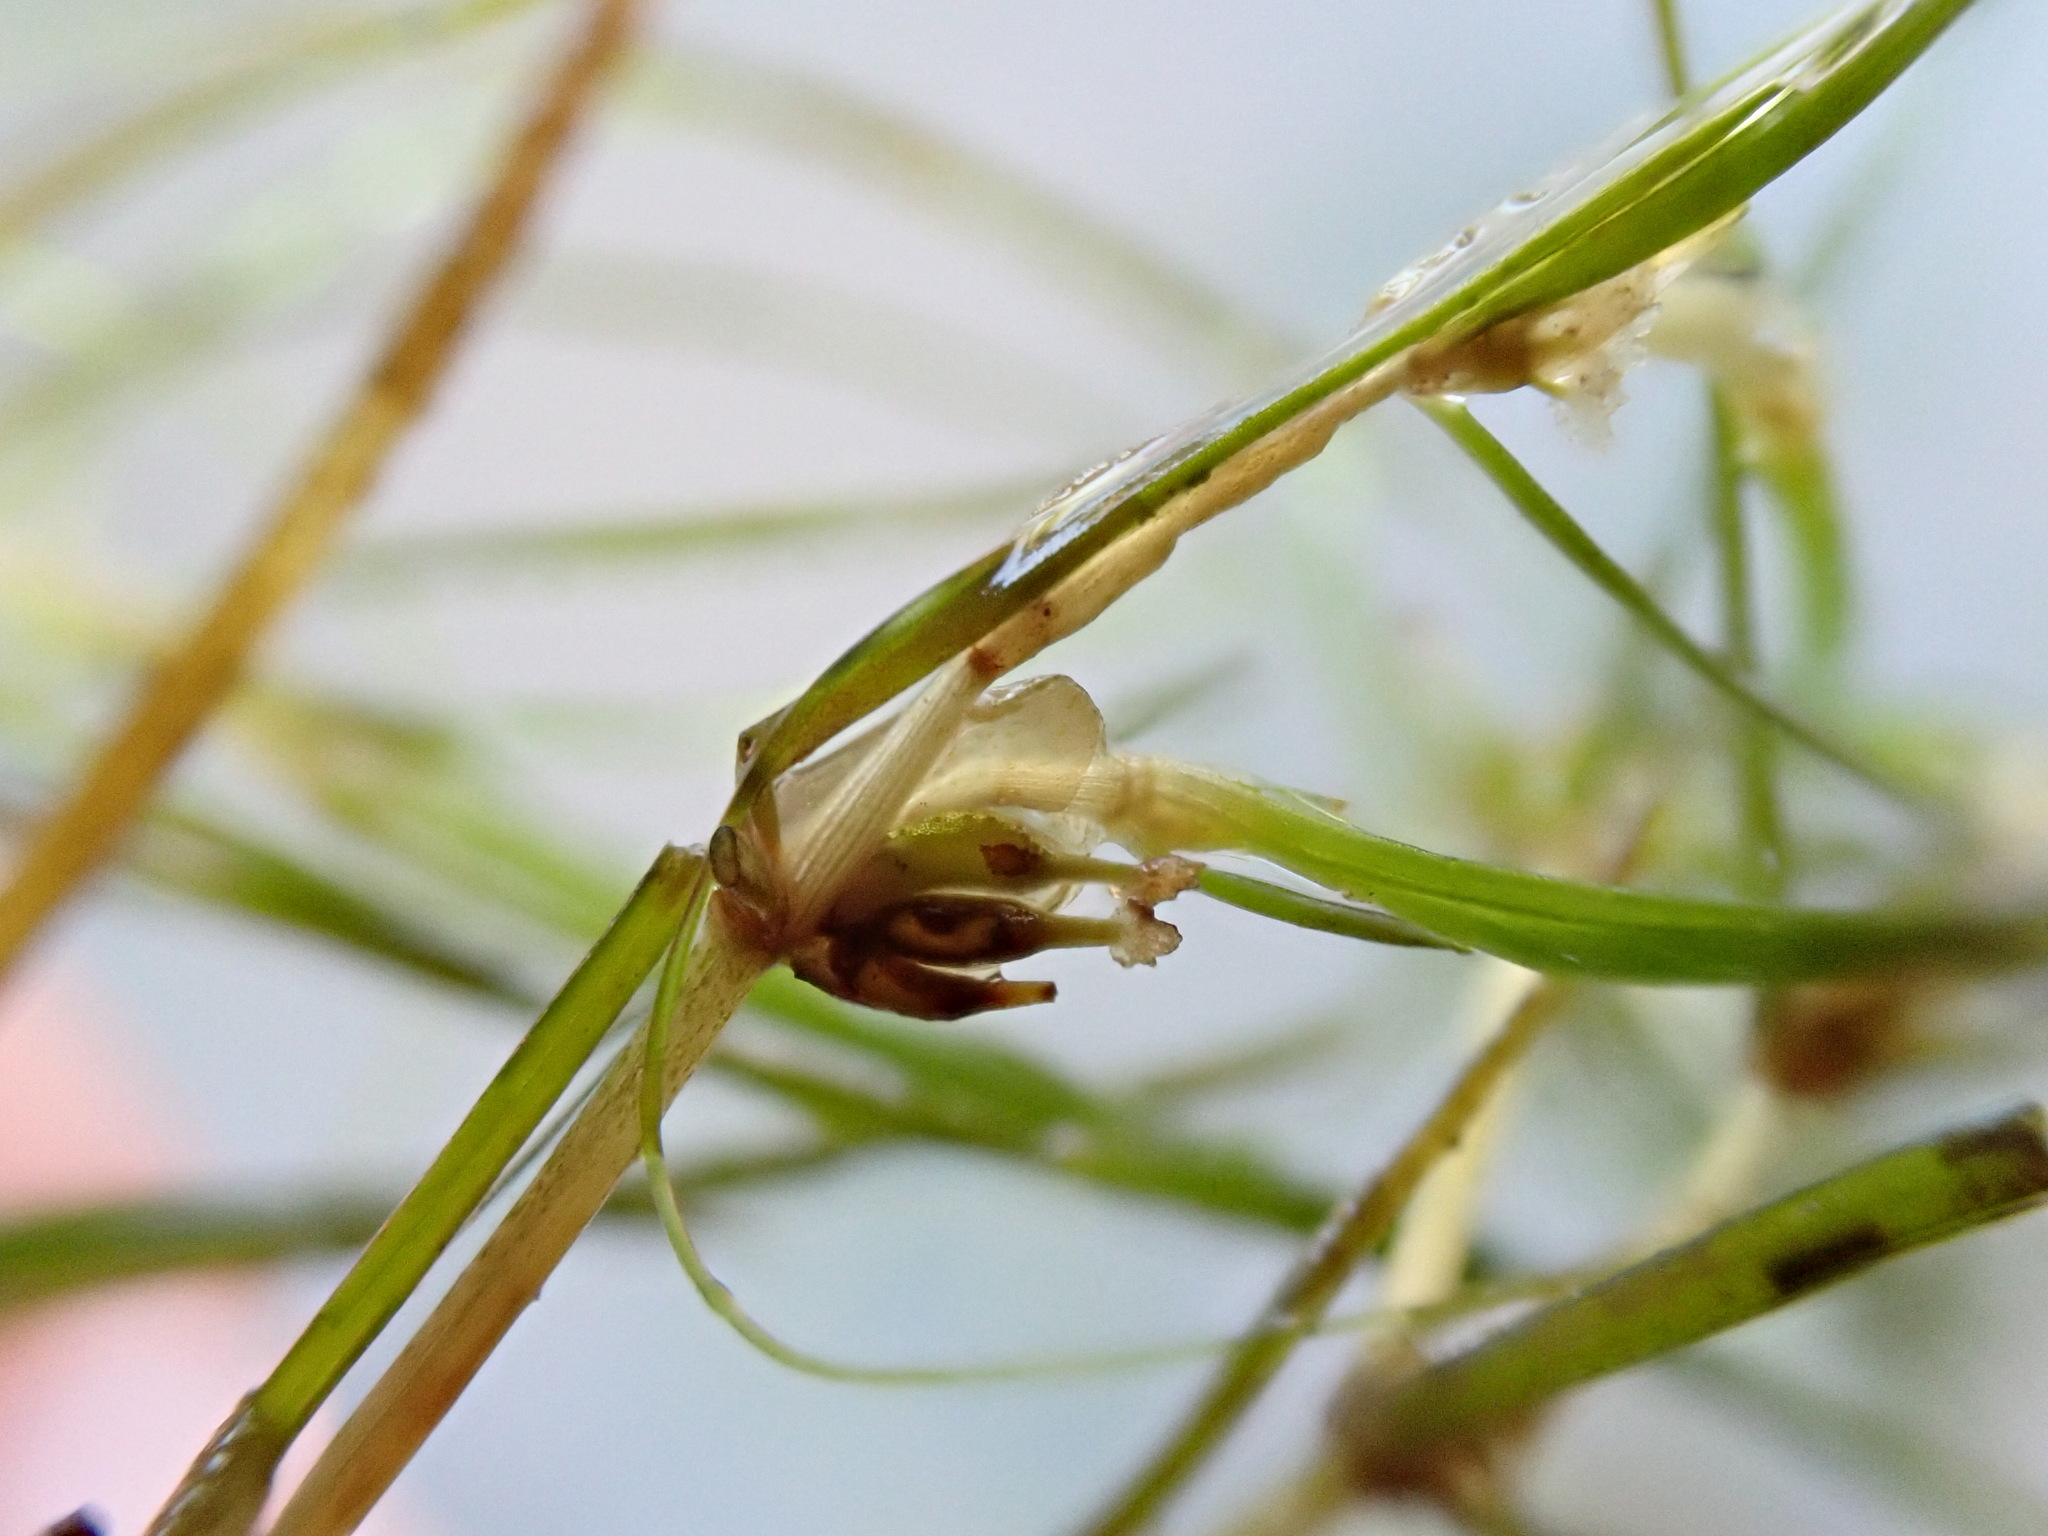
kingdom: Plantae
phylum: Tracheophyta
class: Liliopsida
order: Alismatales
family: Potamogetonaceae
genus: Zannichellia
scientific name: Zannichellia palustris
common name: Horned pondweed
